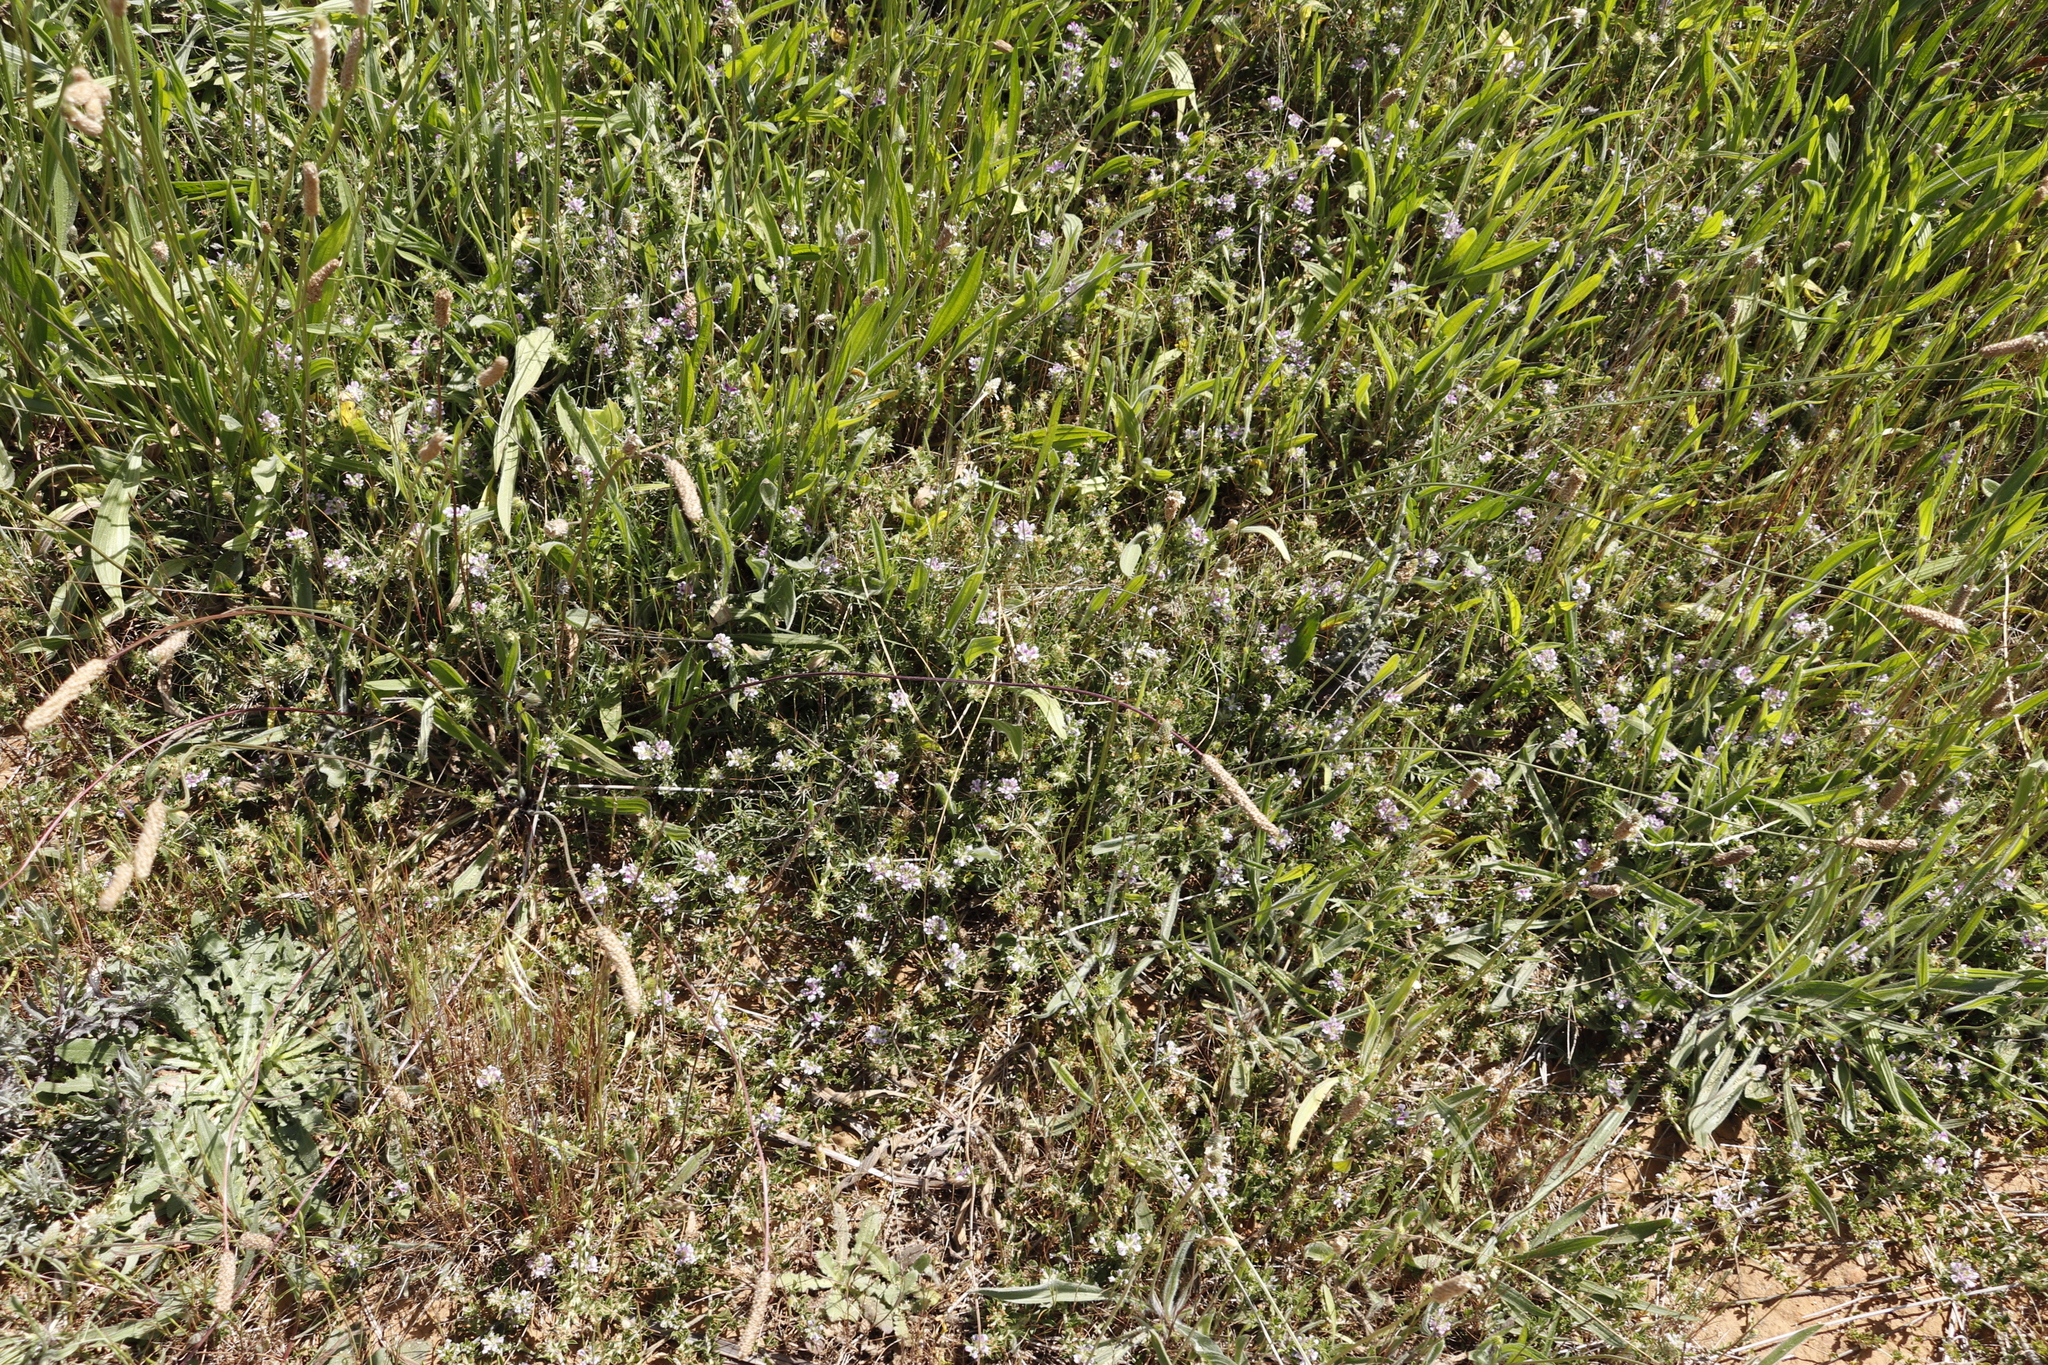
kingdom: Plantae
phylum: Tracheophyta
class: Magnoliopsida
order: Fabales
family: Fabaceae
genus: Psoralea
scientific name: Psoralea
